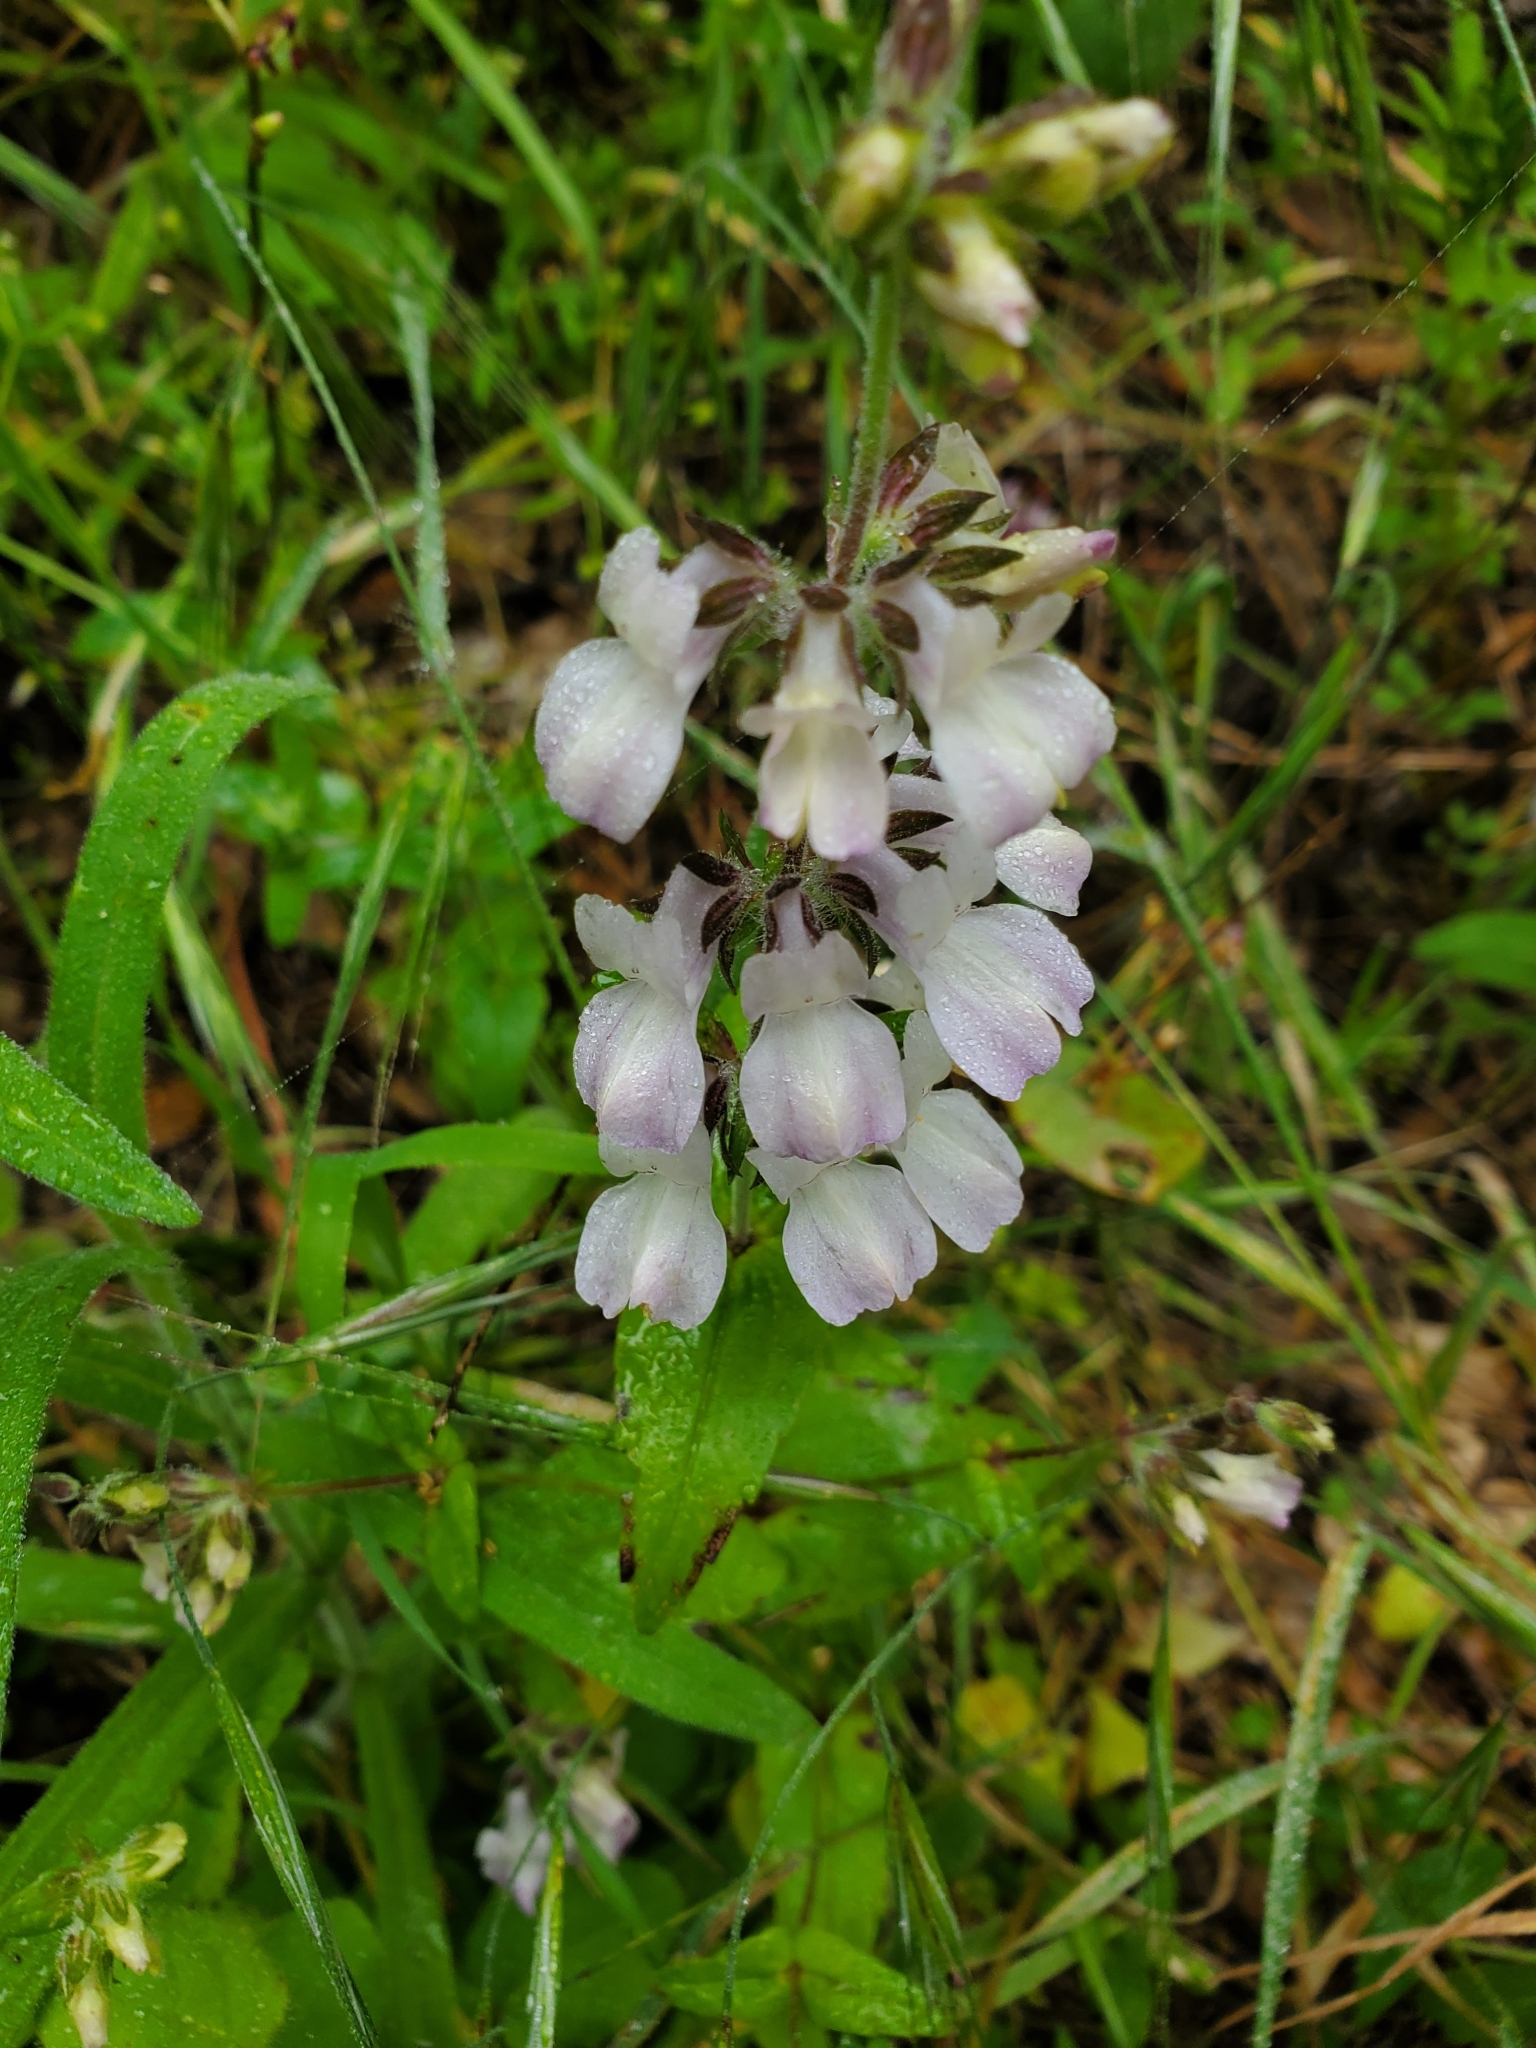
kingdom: Plantae
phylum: Tracheophyta
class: Magnoliopsida
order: Lamiales
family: Plantaginaceae
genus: Collinsia
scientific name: Collinsia heterophylla
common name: Chinese-houses
